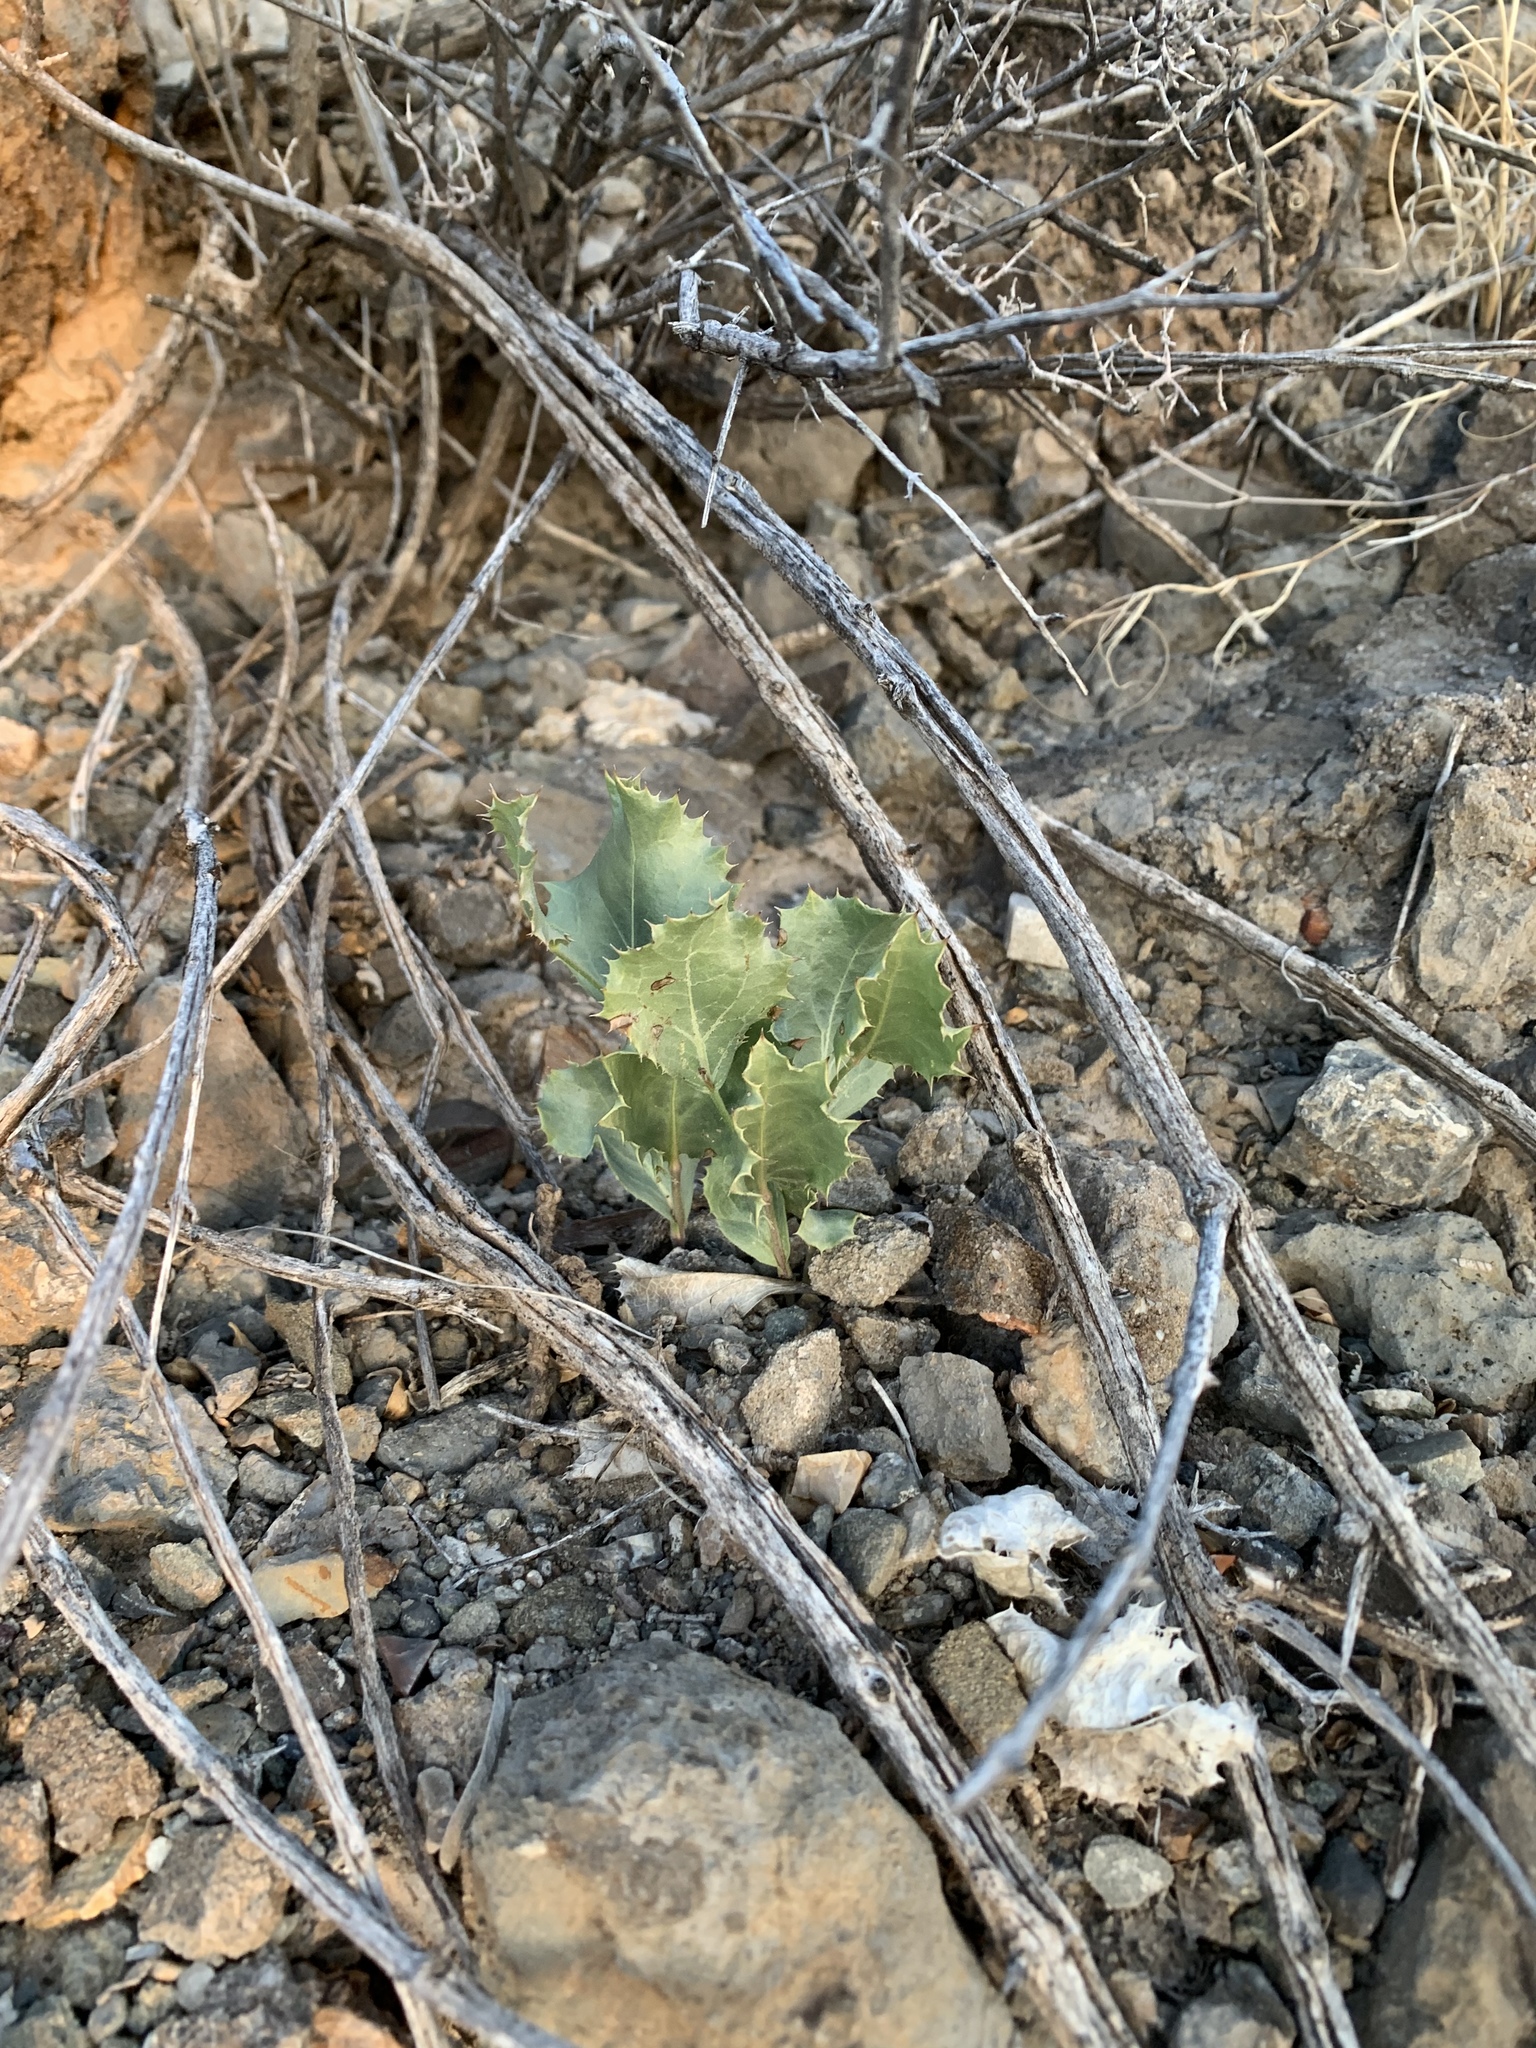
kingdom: Plantae
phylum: Tracheophyta
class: Magnoliopsida
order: Asterales
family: Asteraceae
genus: Acourtia
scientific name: Acourtia nana
